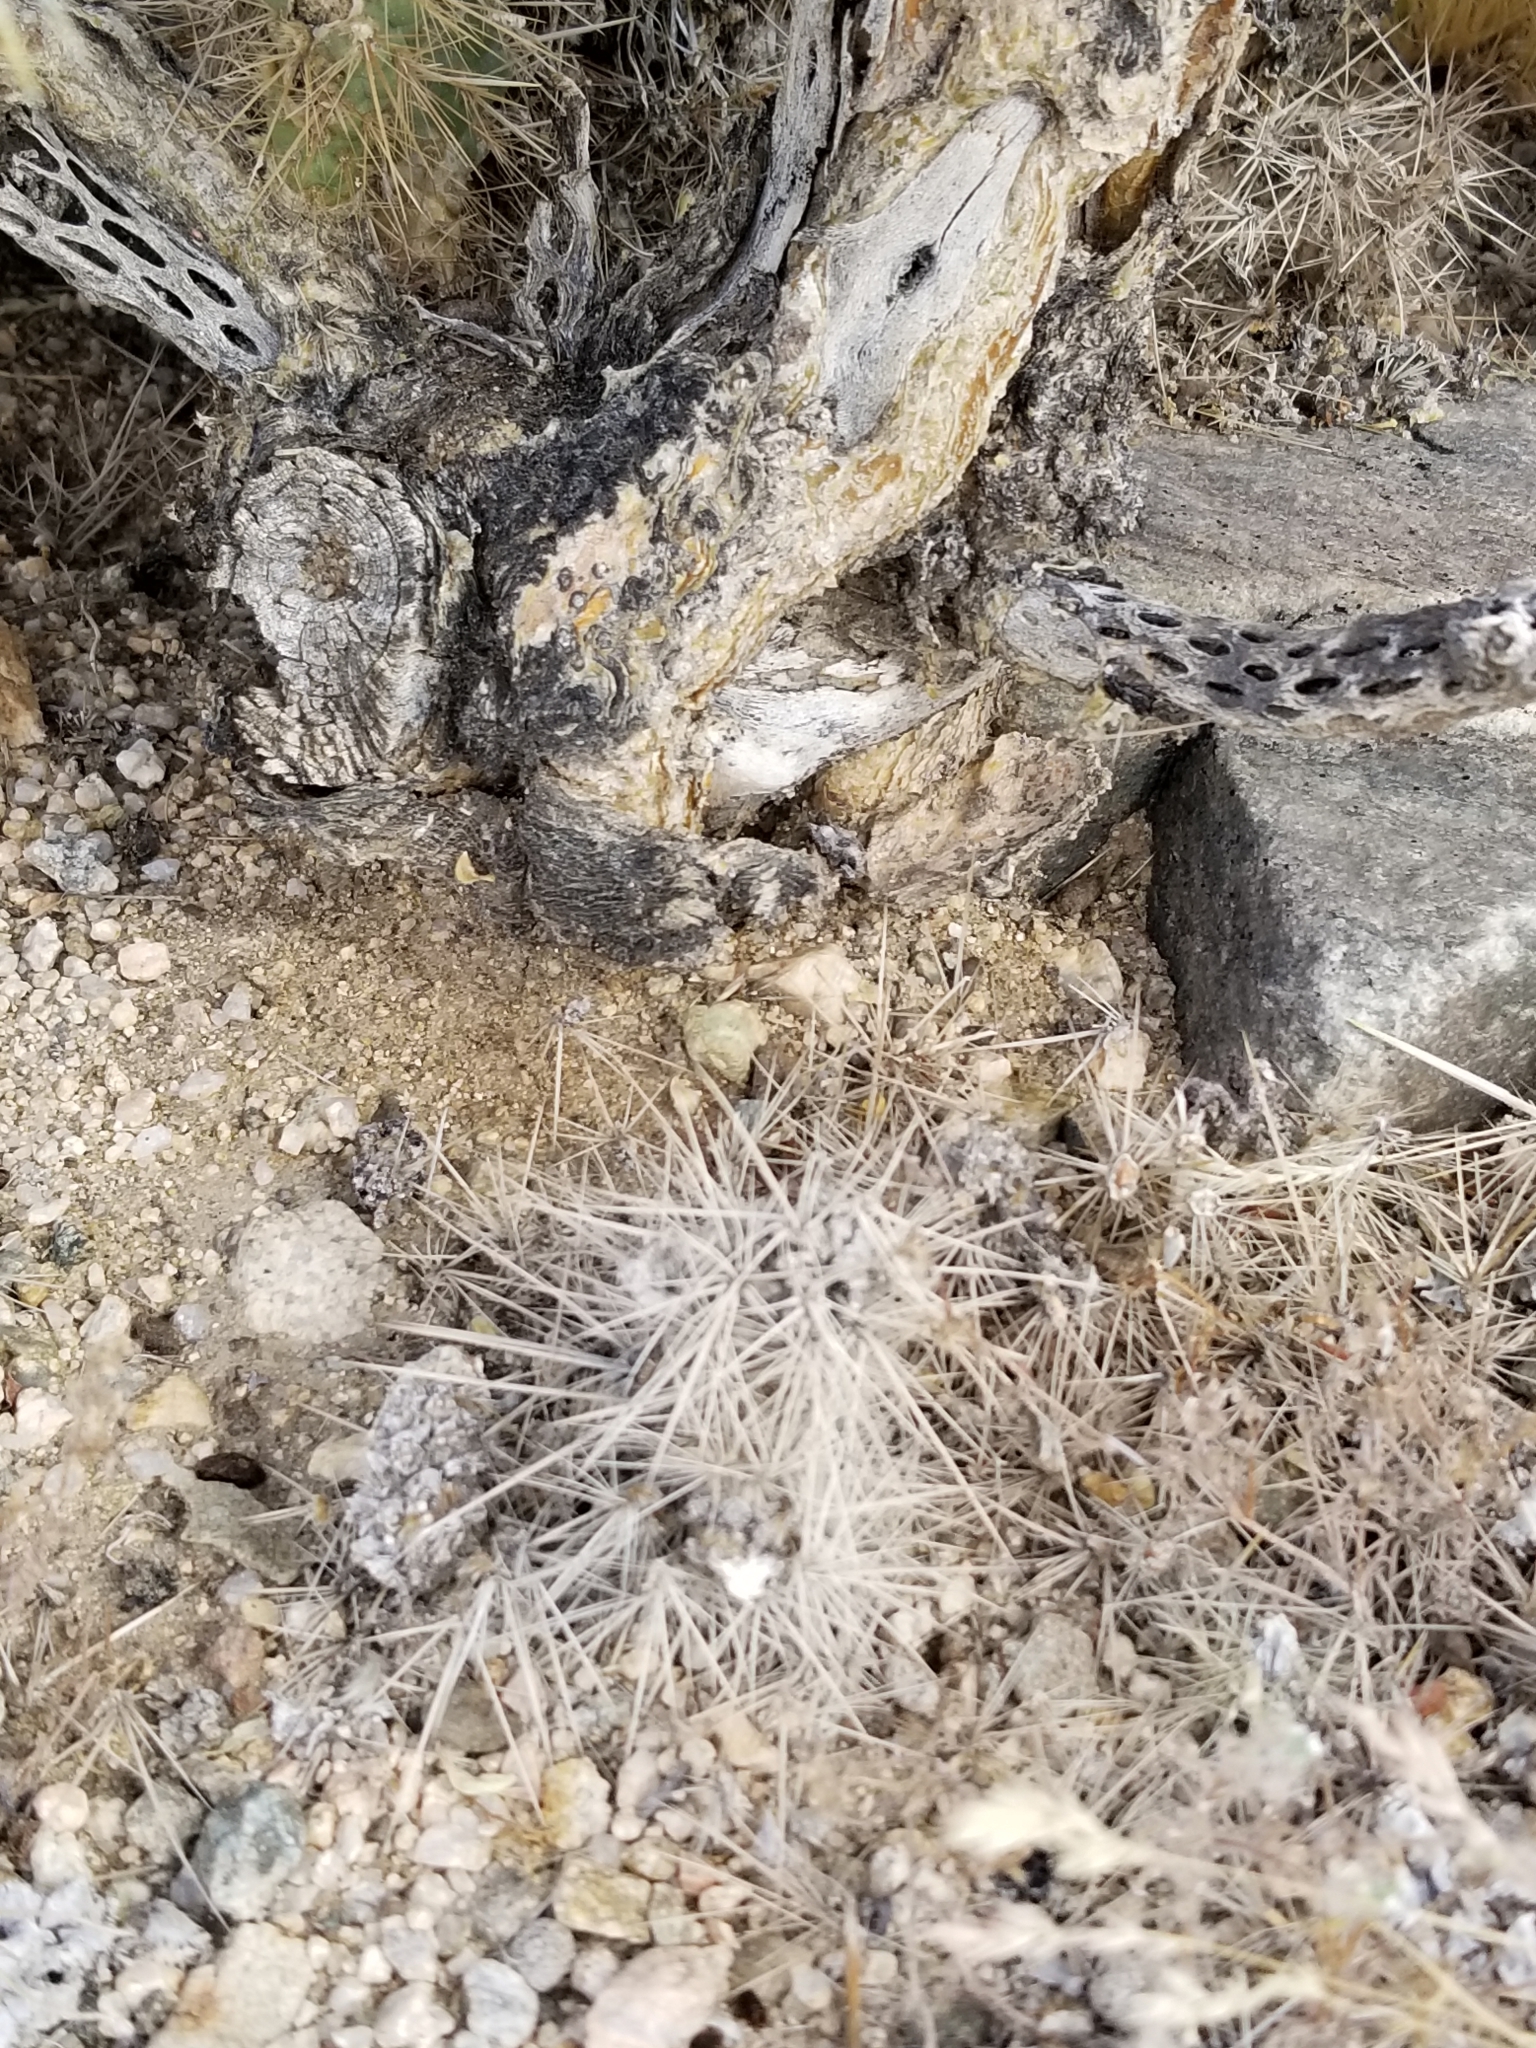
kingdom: Plantae
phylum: Tracheophyta
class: Magnoliopsida
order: Caryophyllales
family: Cactaceae
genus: Cylindropuntia
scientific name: Cylindropuntia echinocarpa
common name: Ground cholla
